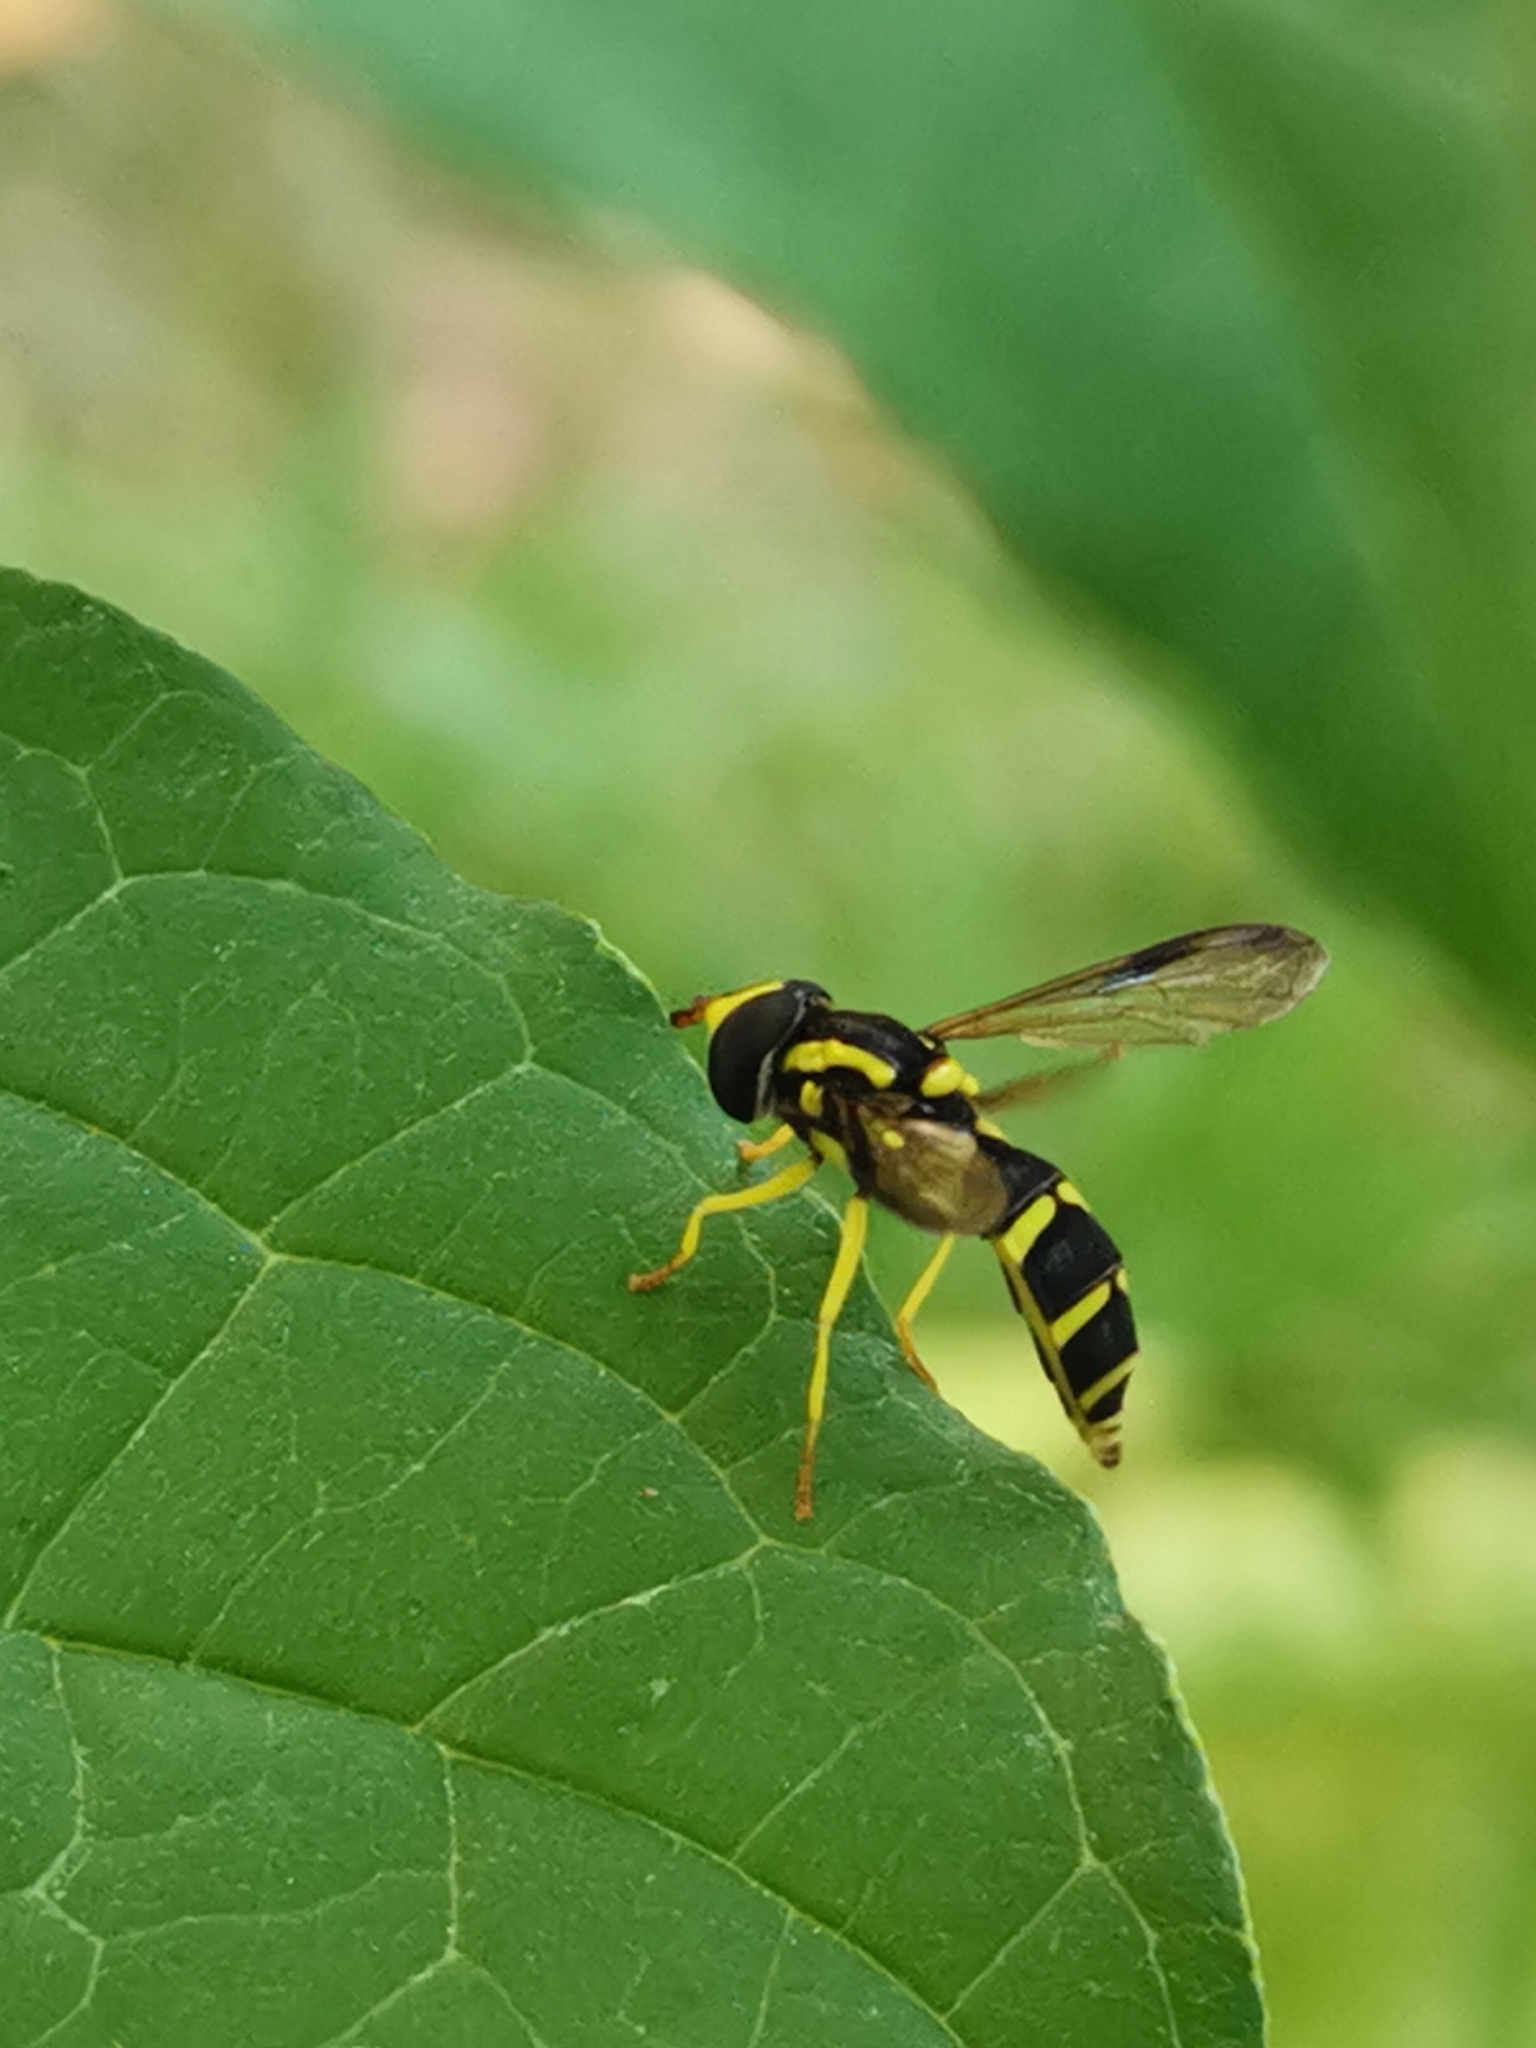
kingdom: Animalia
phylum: Arthropoda
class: Insecta
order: Diptera
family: Syrphidae
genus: Philhelius
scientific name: Philhelius dives
